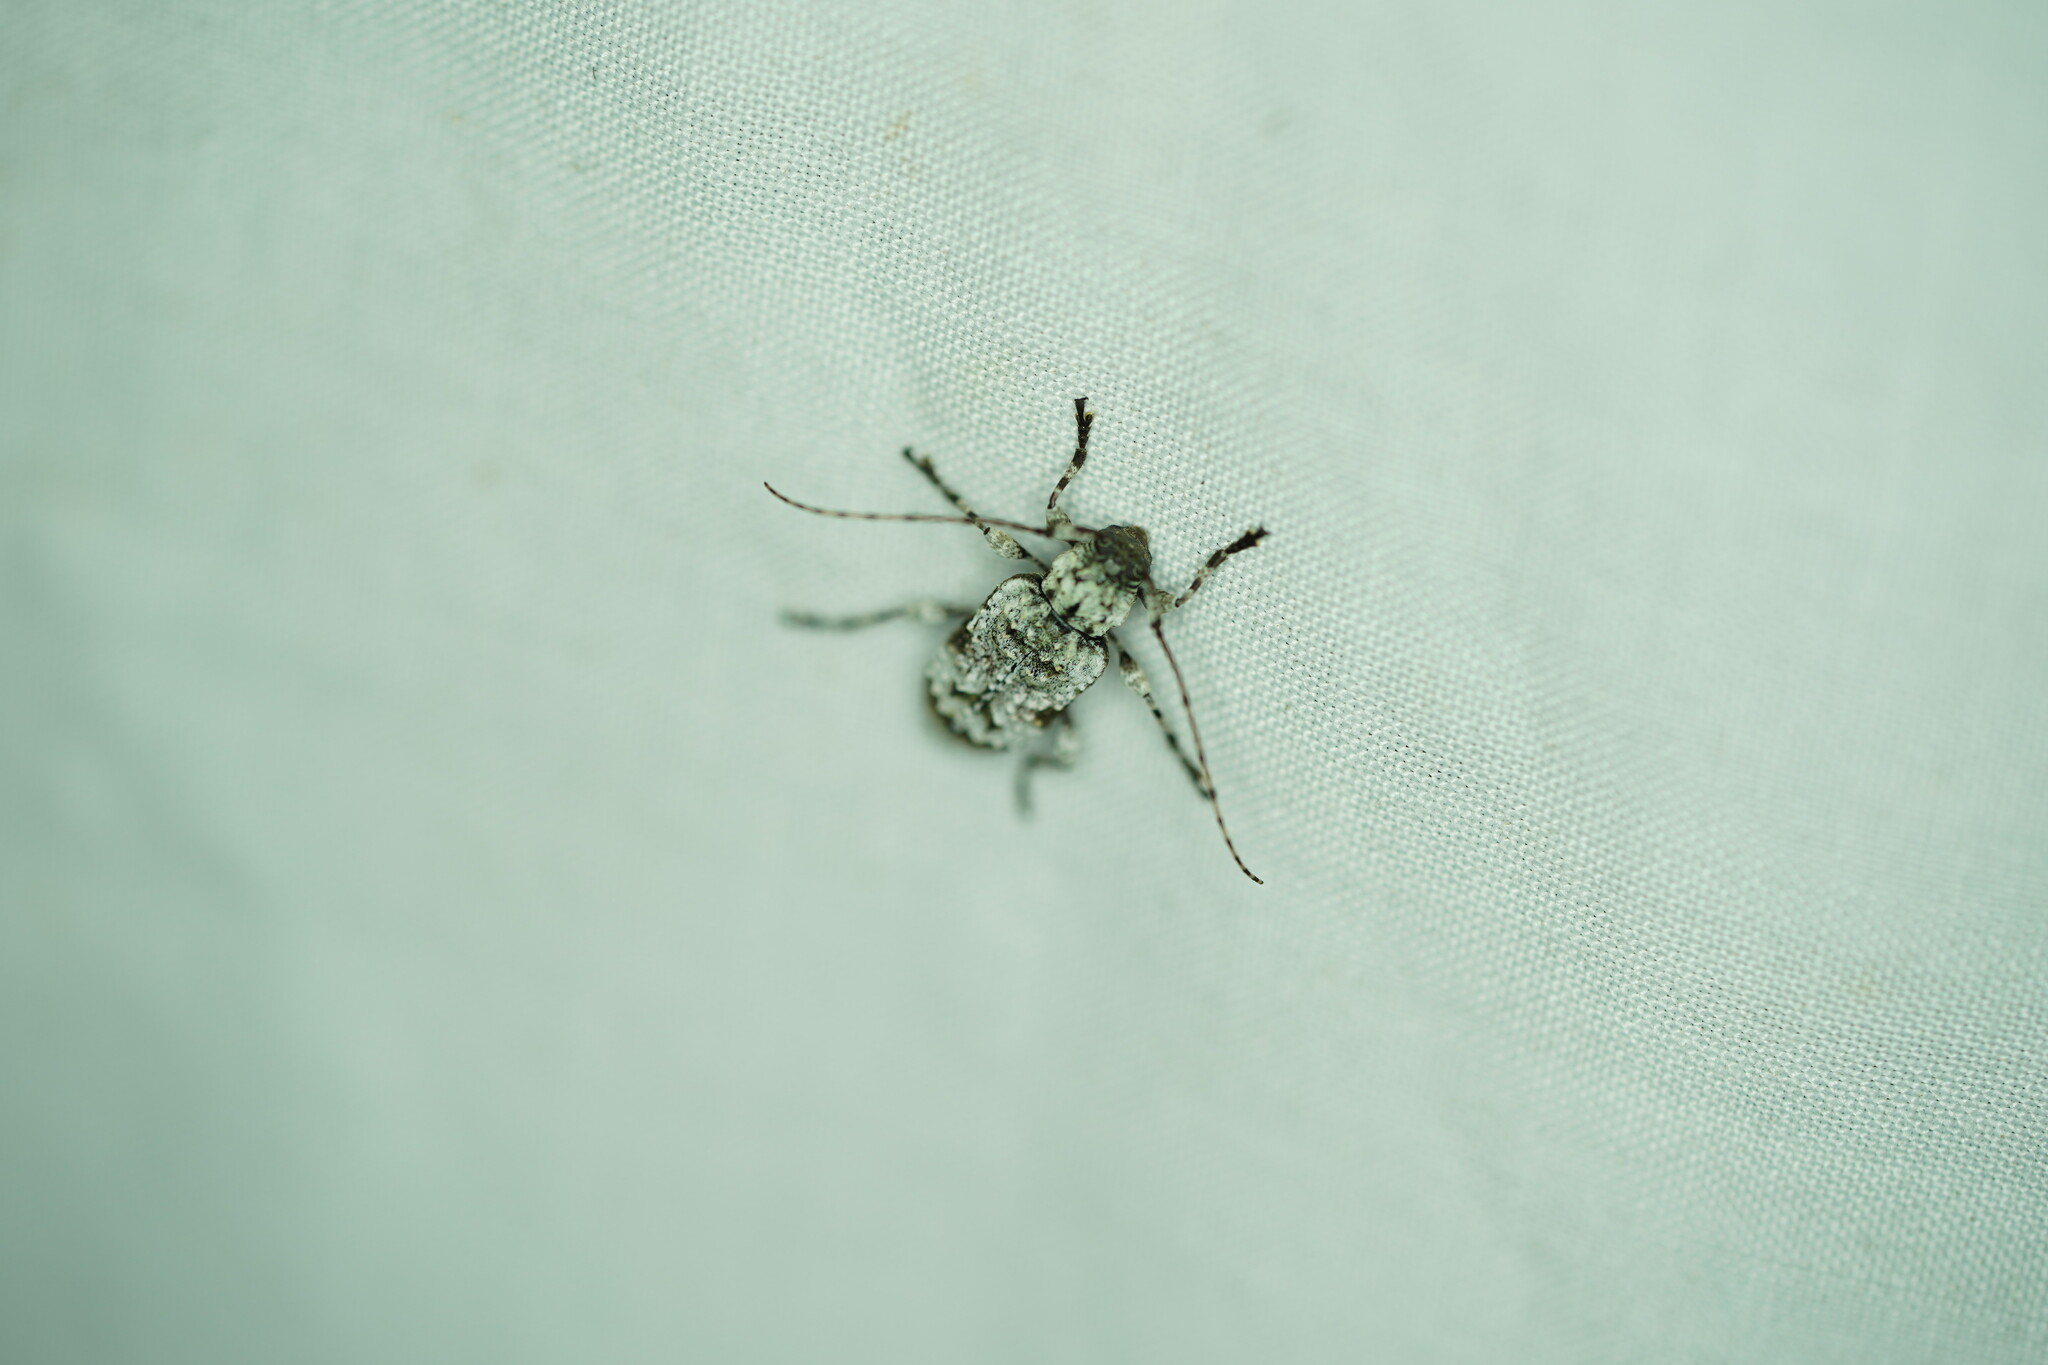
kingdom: Animalia
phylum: Arthropoda
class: Insecta
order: Coleoptera
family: Cerambycidae
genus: Leptostylus
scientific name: Leptostylus asperatus
